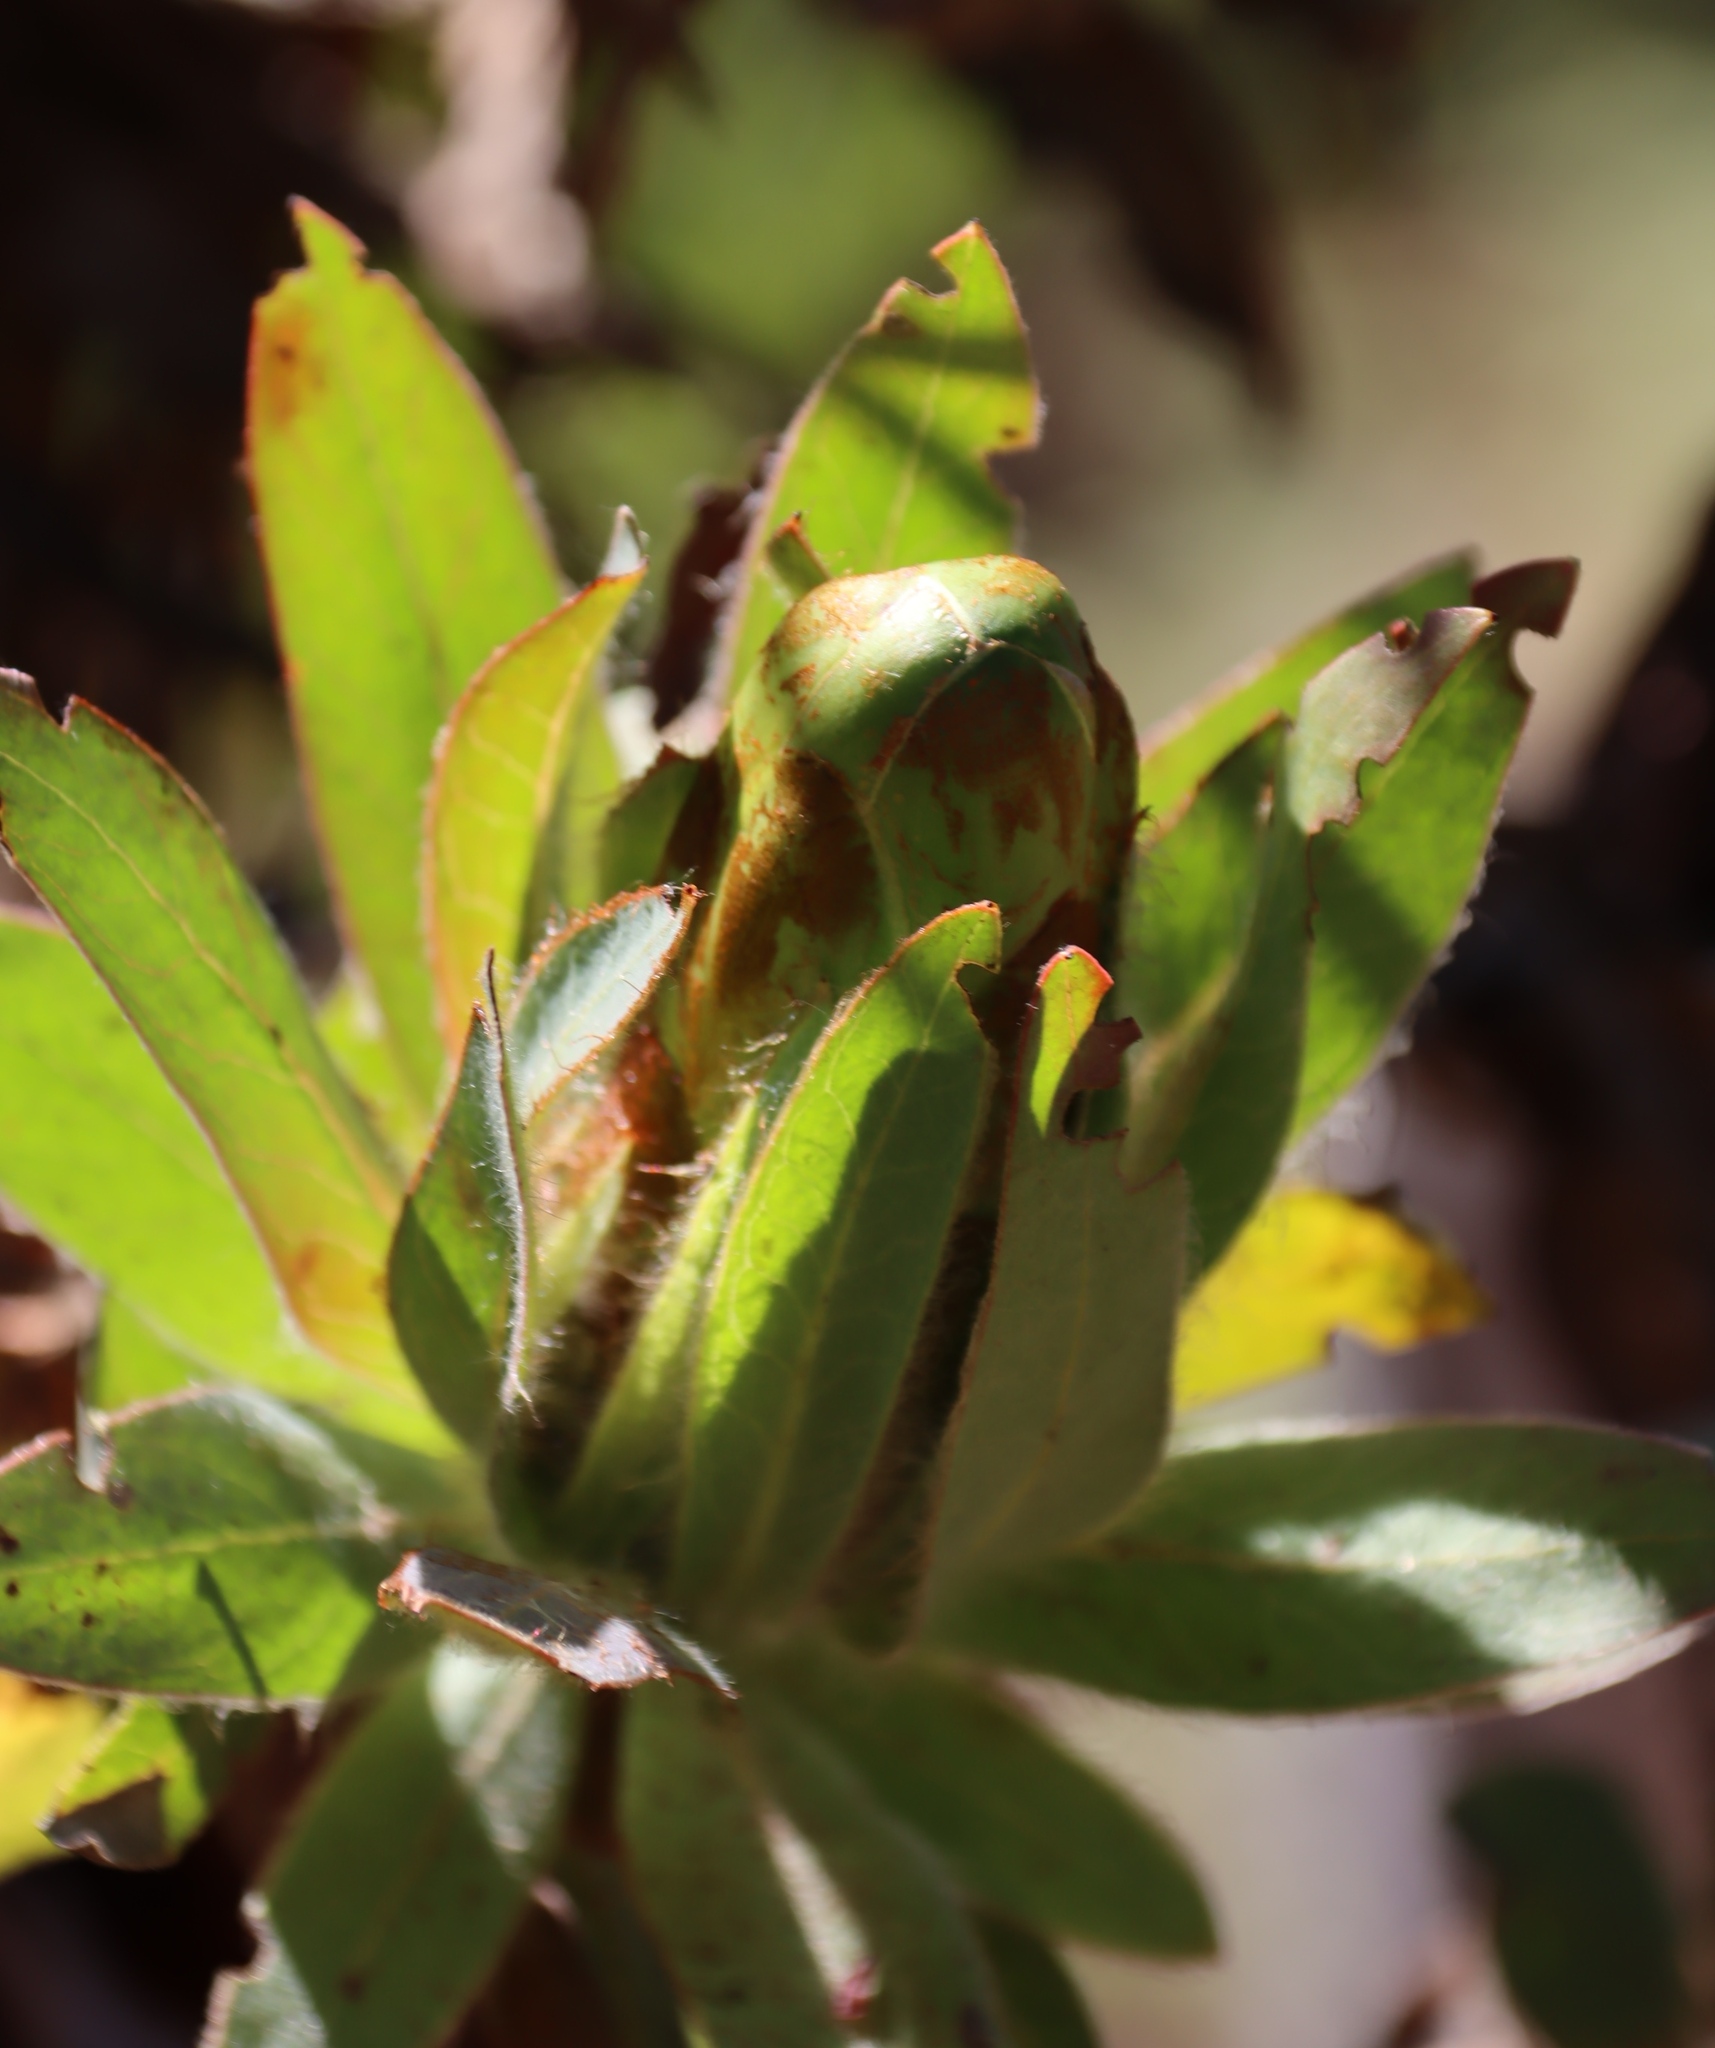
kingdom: Plantae
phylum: Tracheophyta
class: Magnoliopsida
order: Proteales
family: Proteaceae
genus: Protea
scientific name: Protea coronata
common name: Green sugarbush
